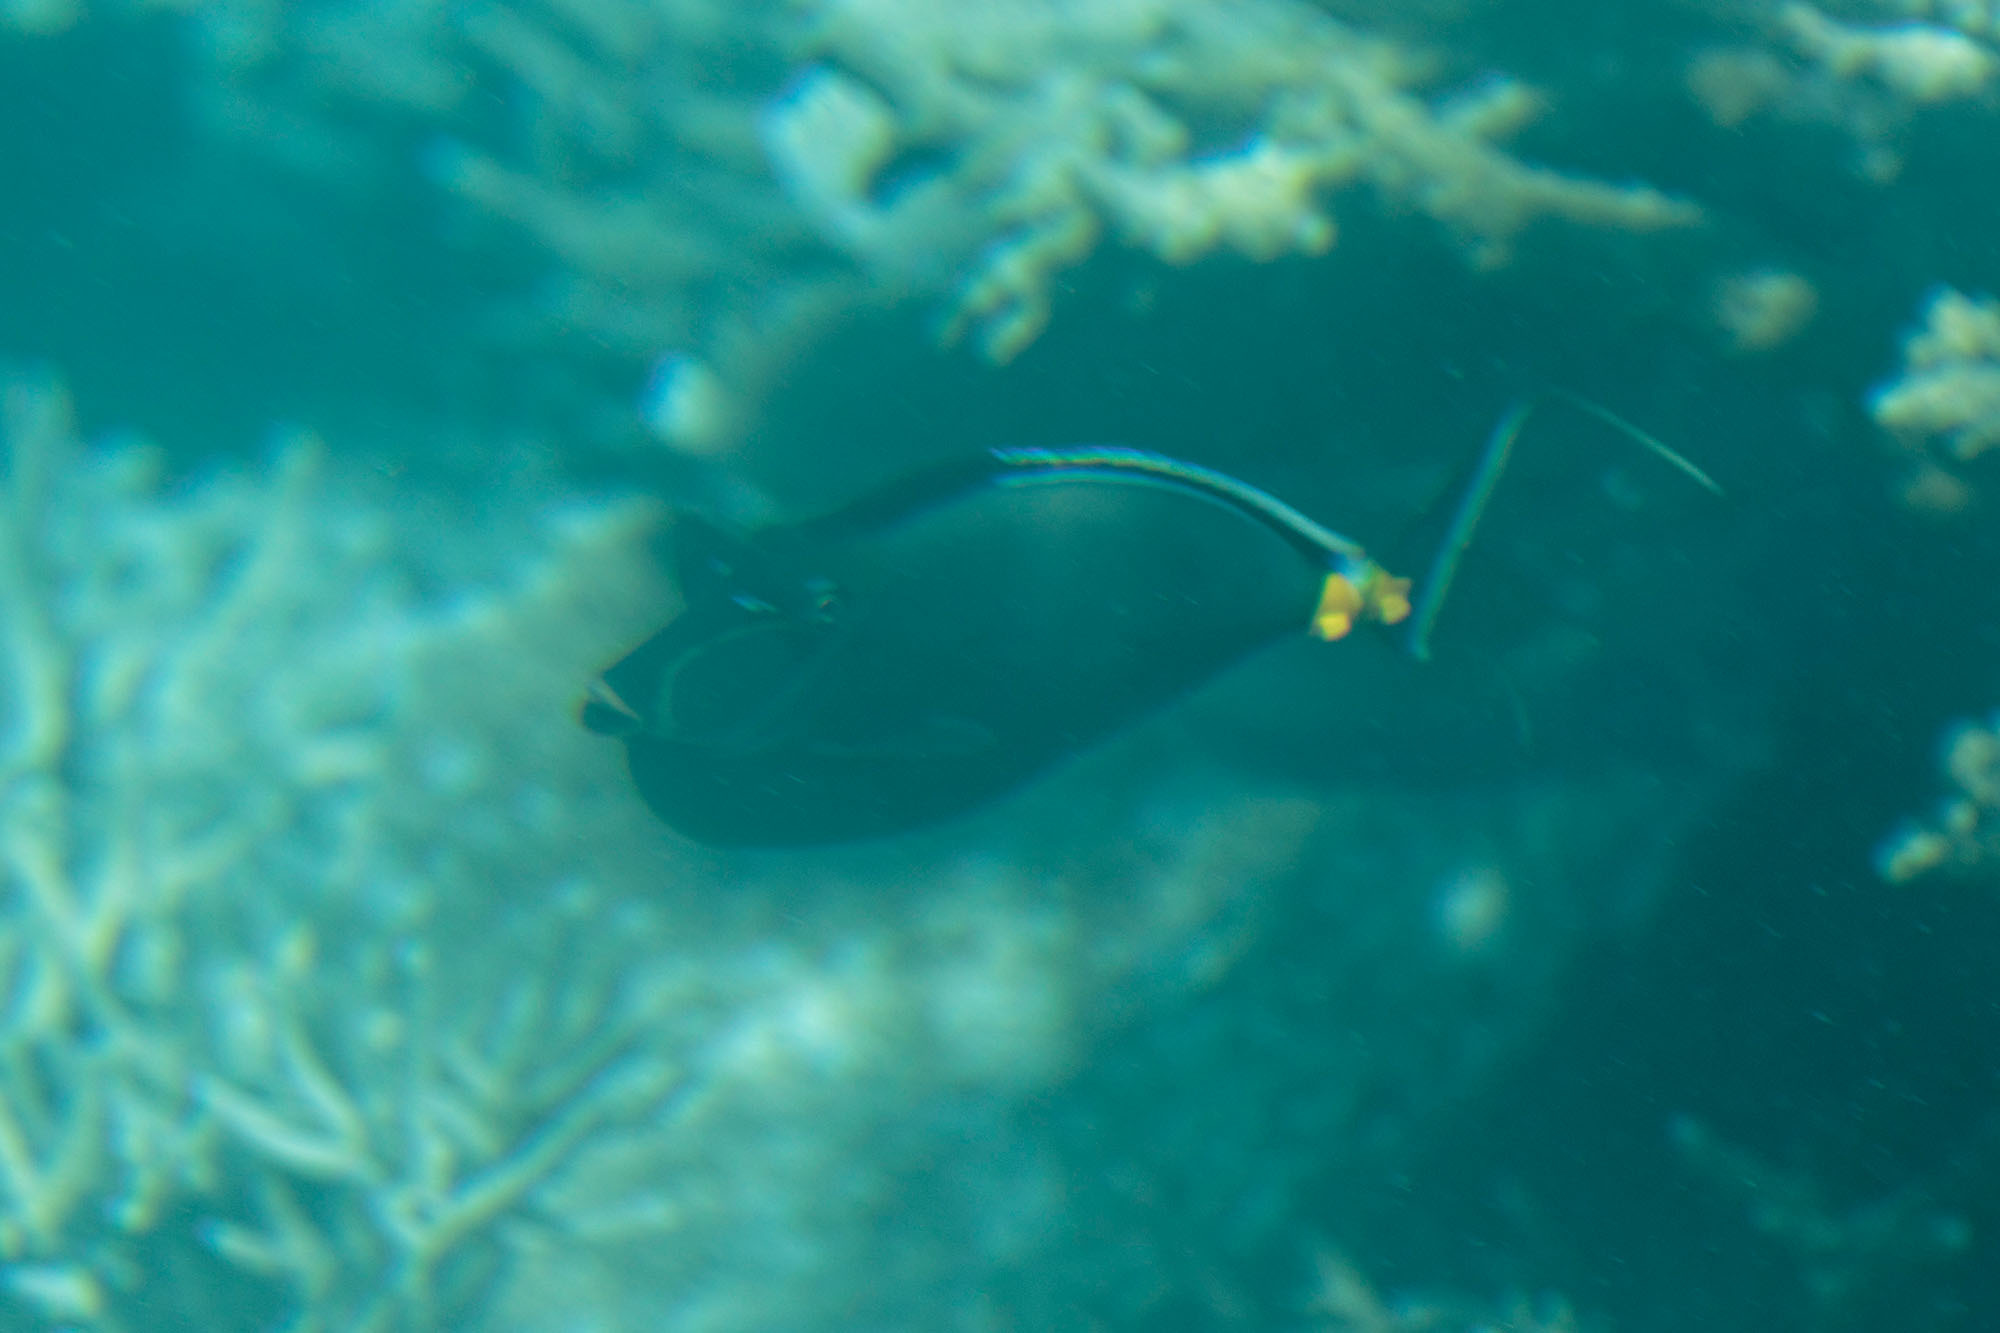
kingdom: Animalia
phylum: Chordata
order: Perciformes
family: Acanthuridae
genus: Naso
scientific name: Naso lituratus
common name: Orangespine unicornfish
